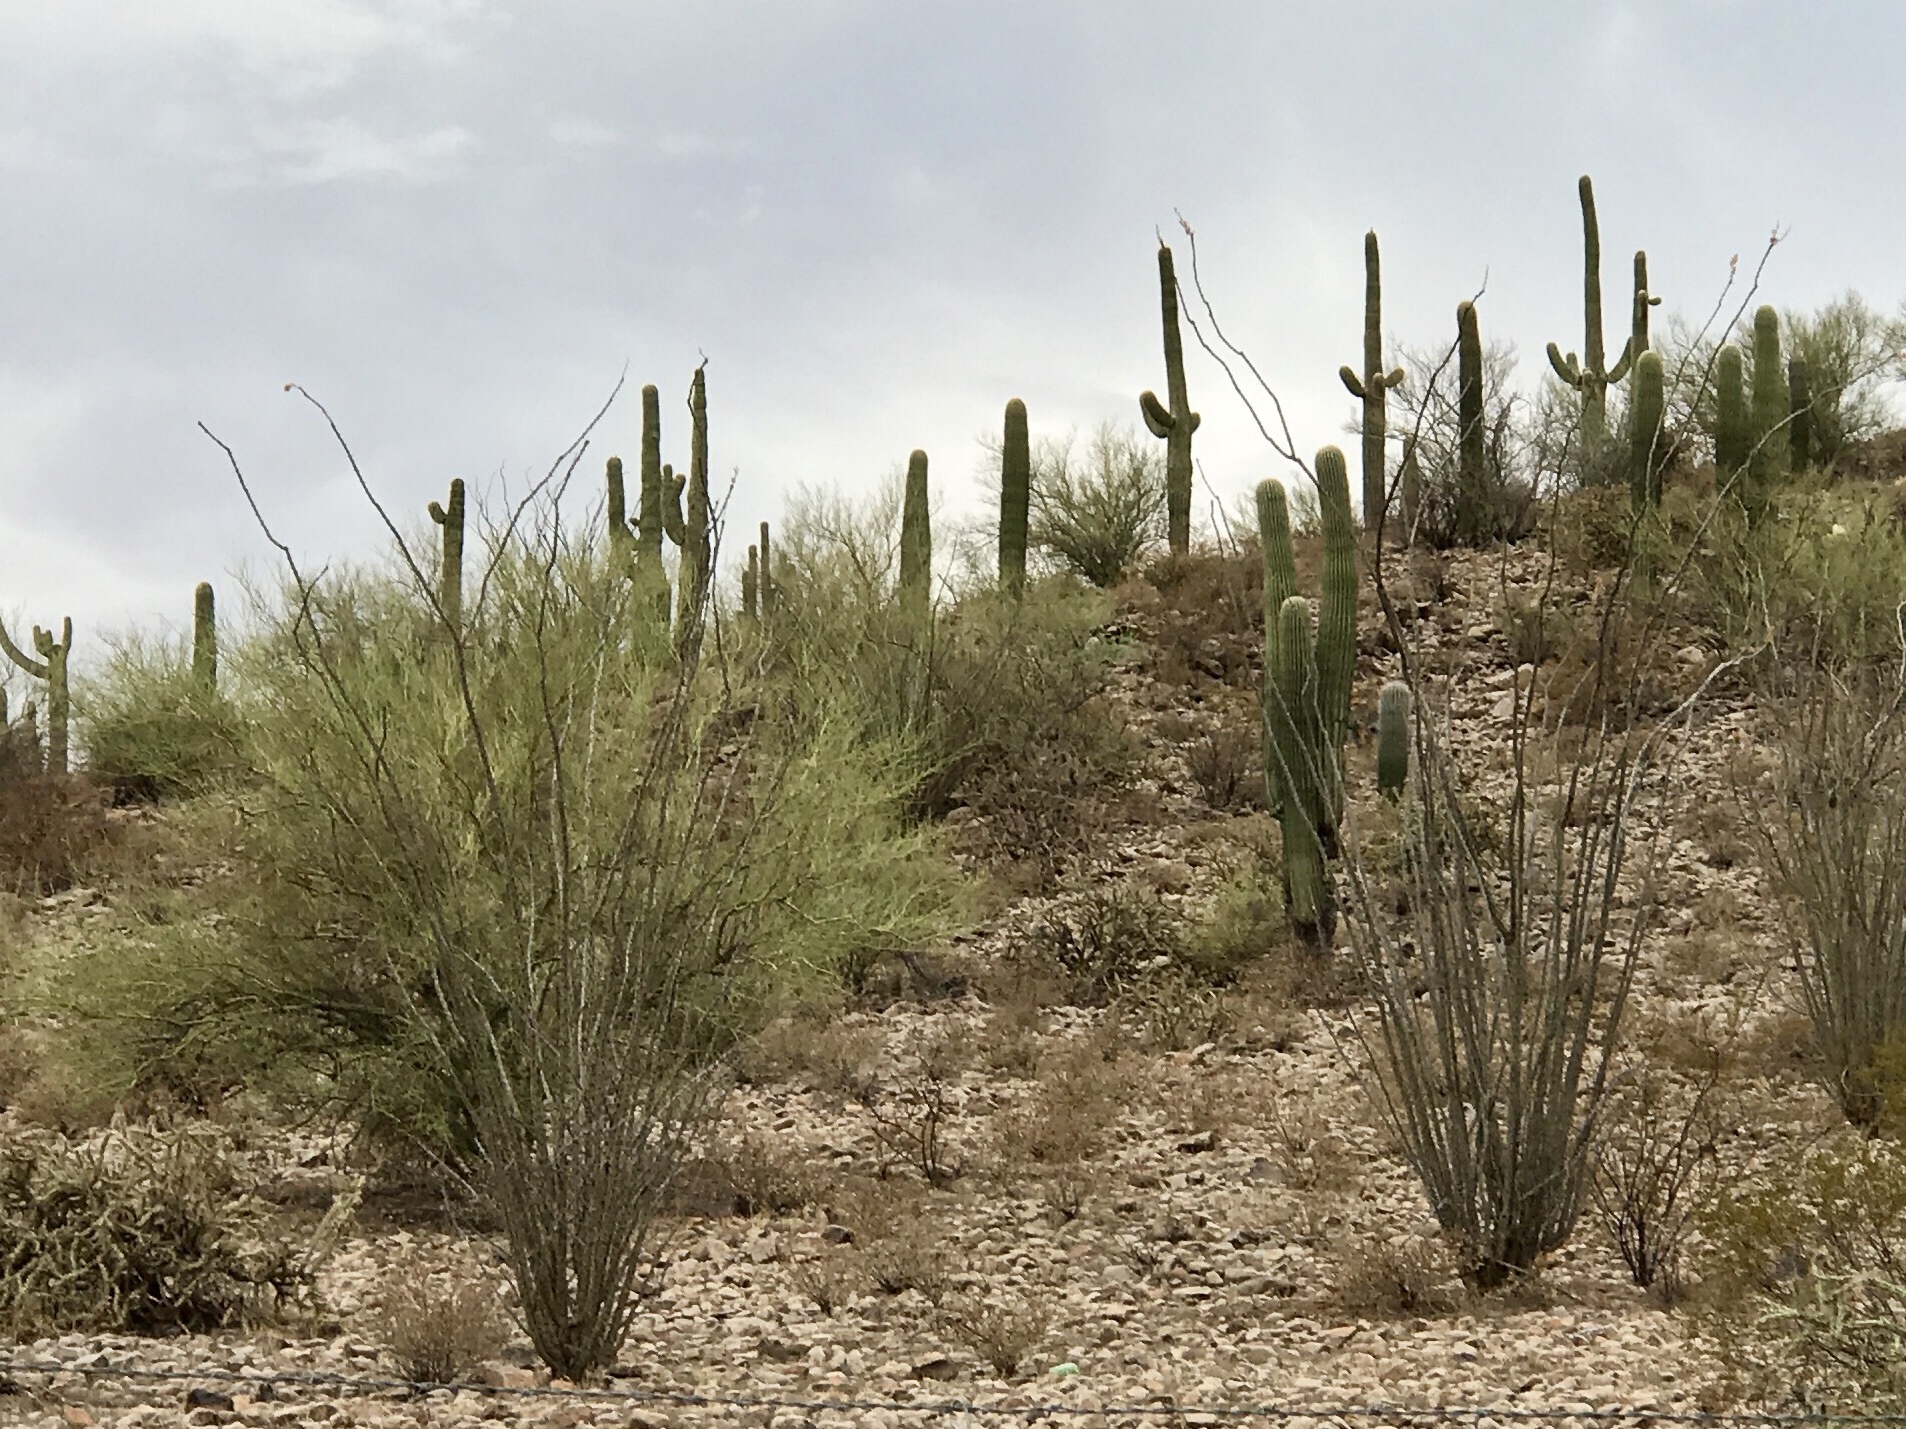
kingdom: Plantae
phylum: Tracheophyta
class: Magnoliopsida
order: Caryophyllales
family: Cactaceae
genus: Carnegiea
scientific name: Carnegiea gigantea
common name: Saguaro
